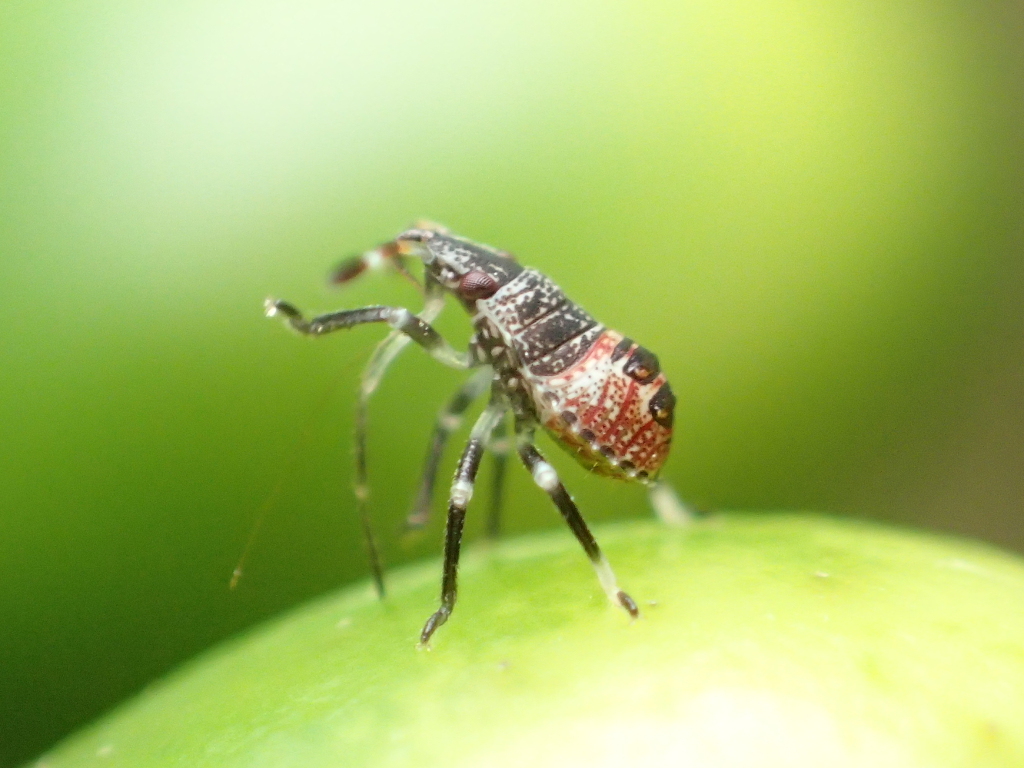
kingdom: Animalia
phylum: Arthropoda
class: Insecta
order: Hemiptera
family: Pentatomidae
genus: Cuspicona
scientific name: Cuspicona simplex
